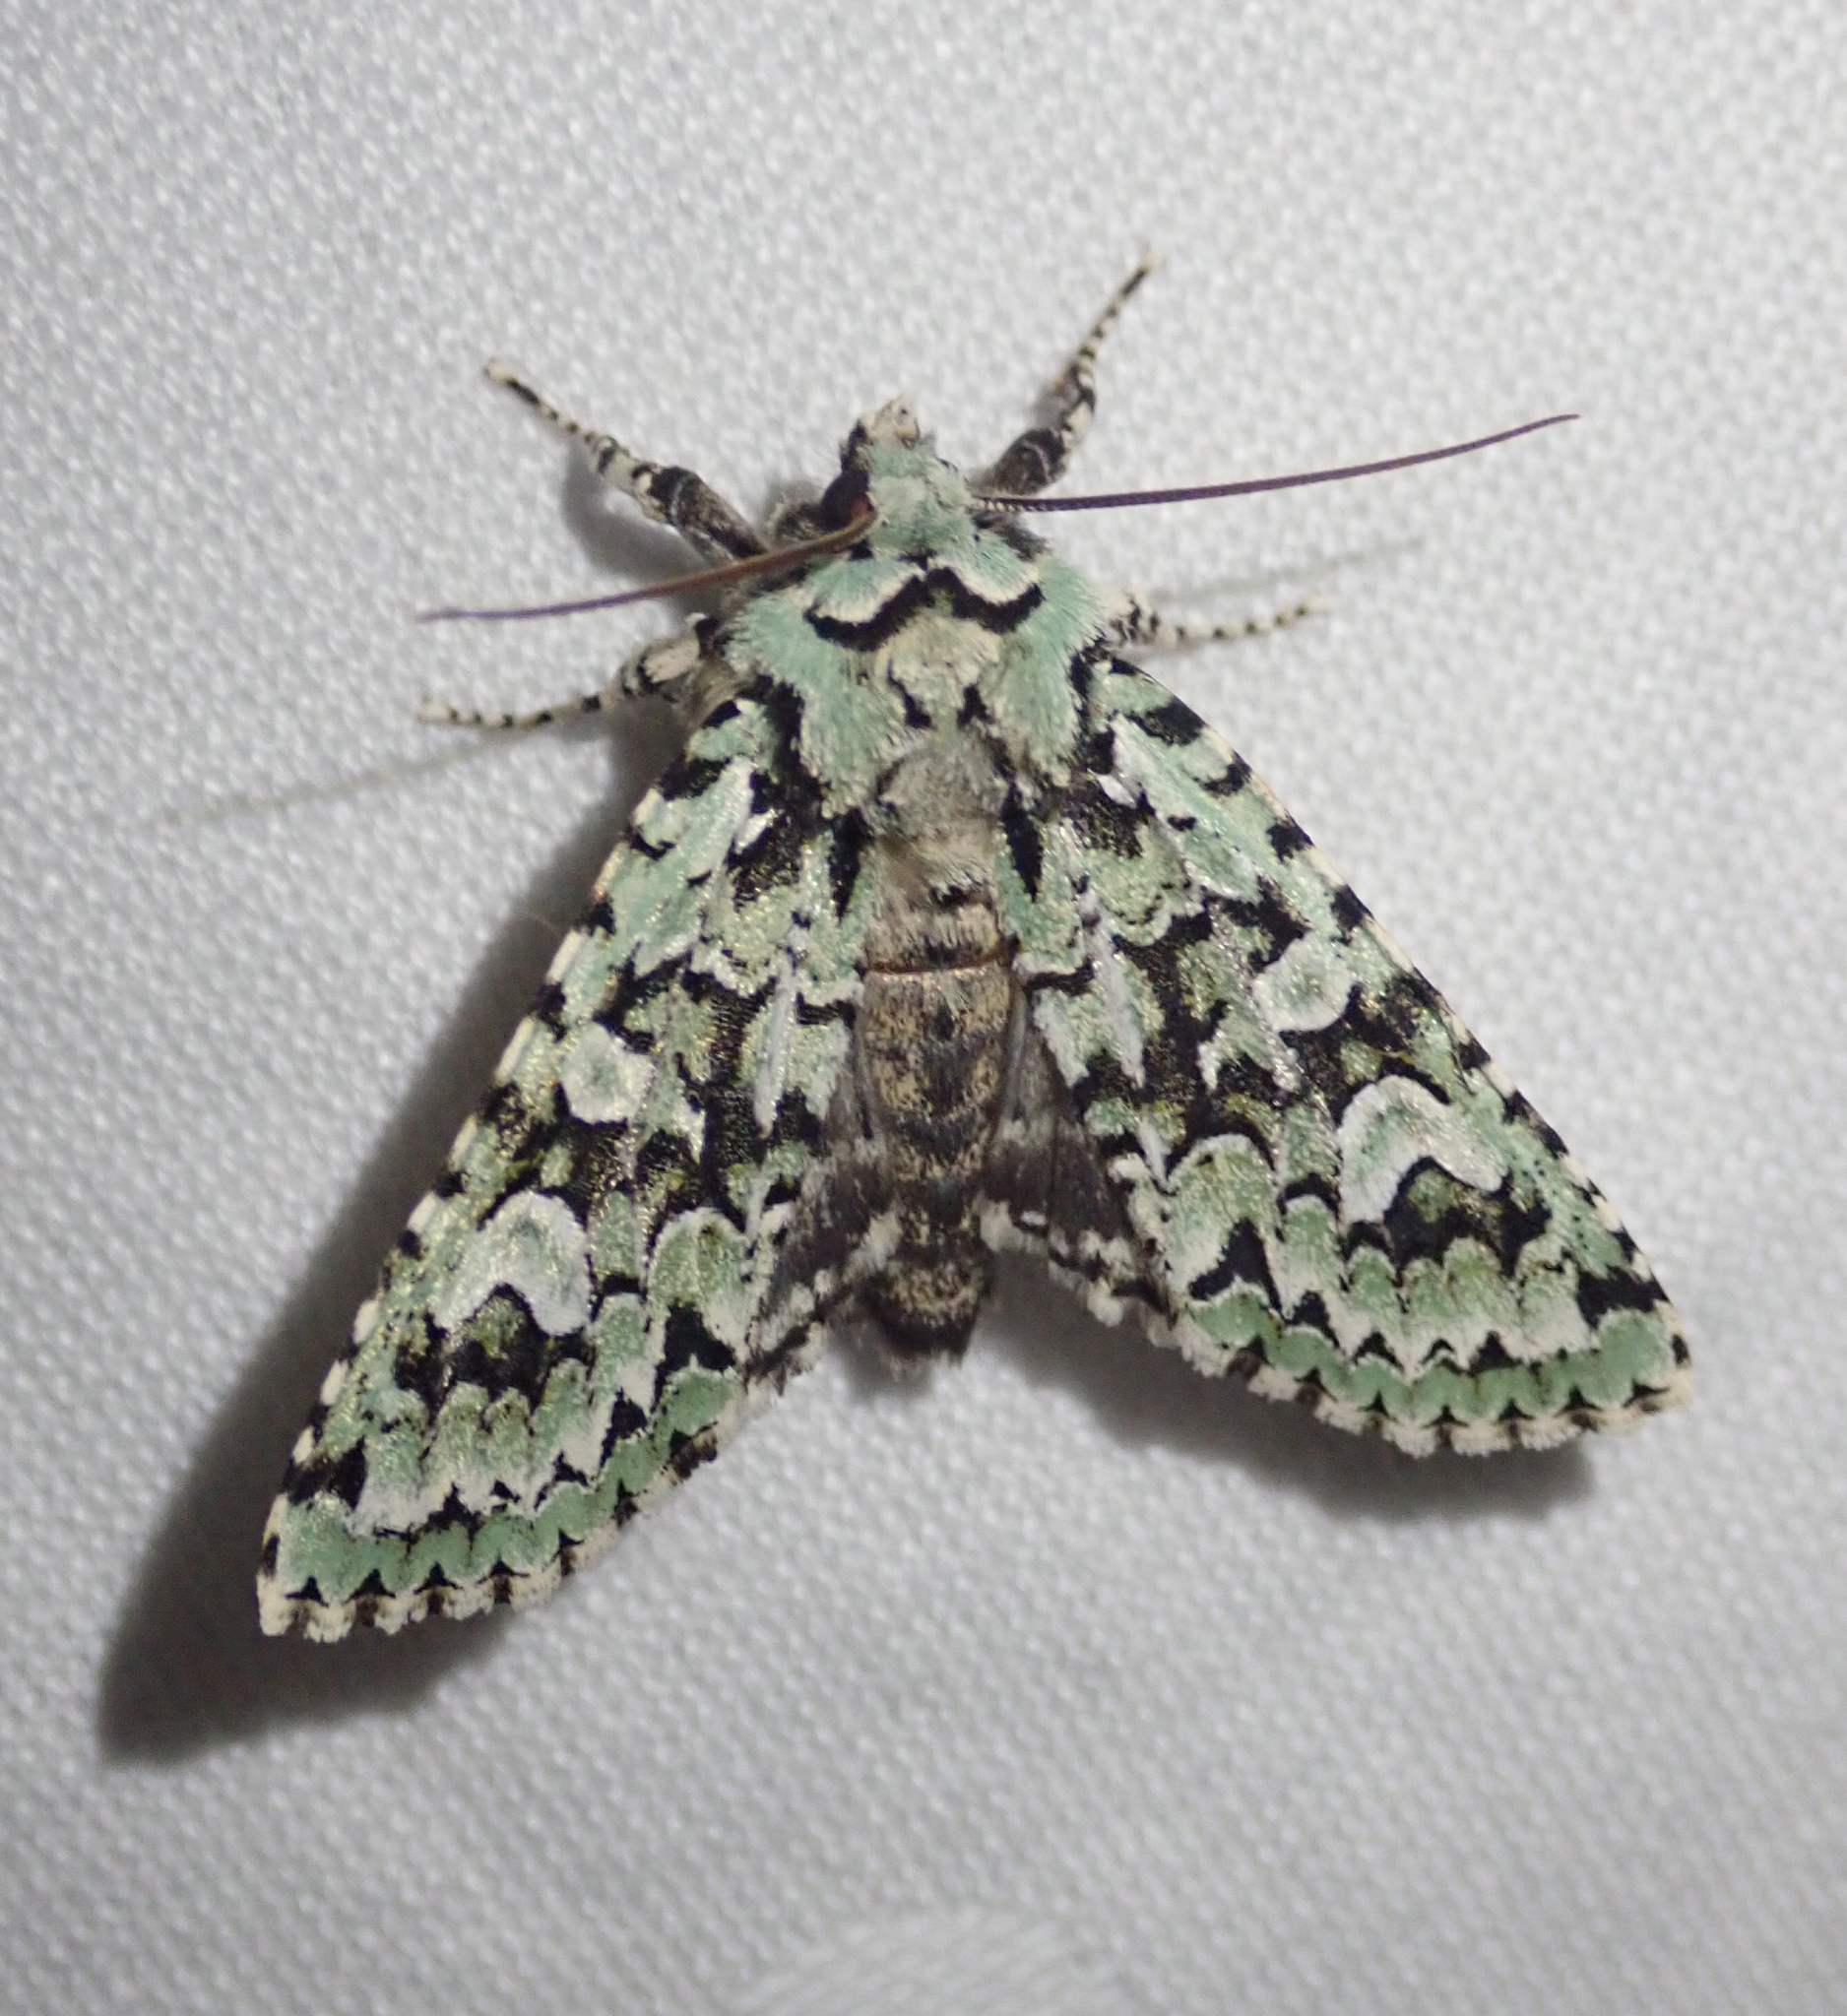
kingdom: Animalia
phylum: Arthropoda
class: Insecta
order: Lepidoptera
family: Noctuidae
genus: Griposia
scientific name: Griposia aprilina
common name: Merveille du jour
